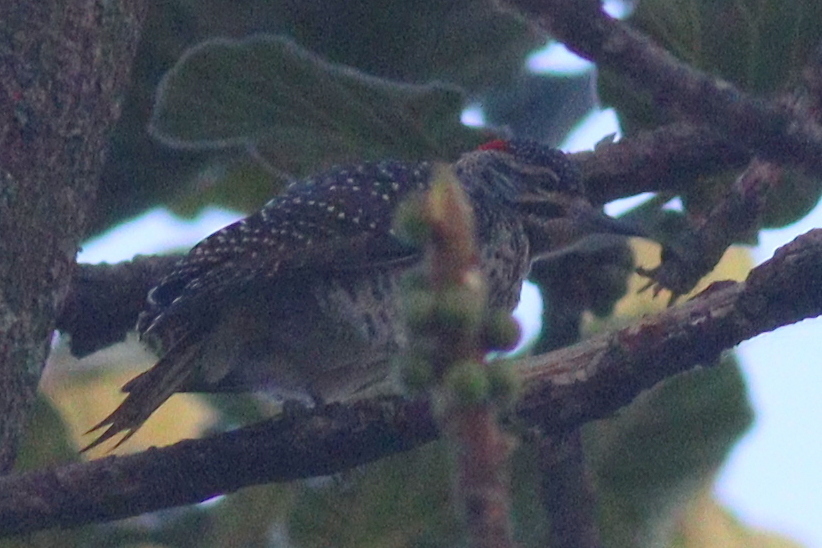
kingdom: Animalia
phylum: Chordata
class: Aves
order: Piciformes
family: Picidae
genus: Campethera
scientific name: Campethera nubica
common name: Nubian woodpecker
